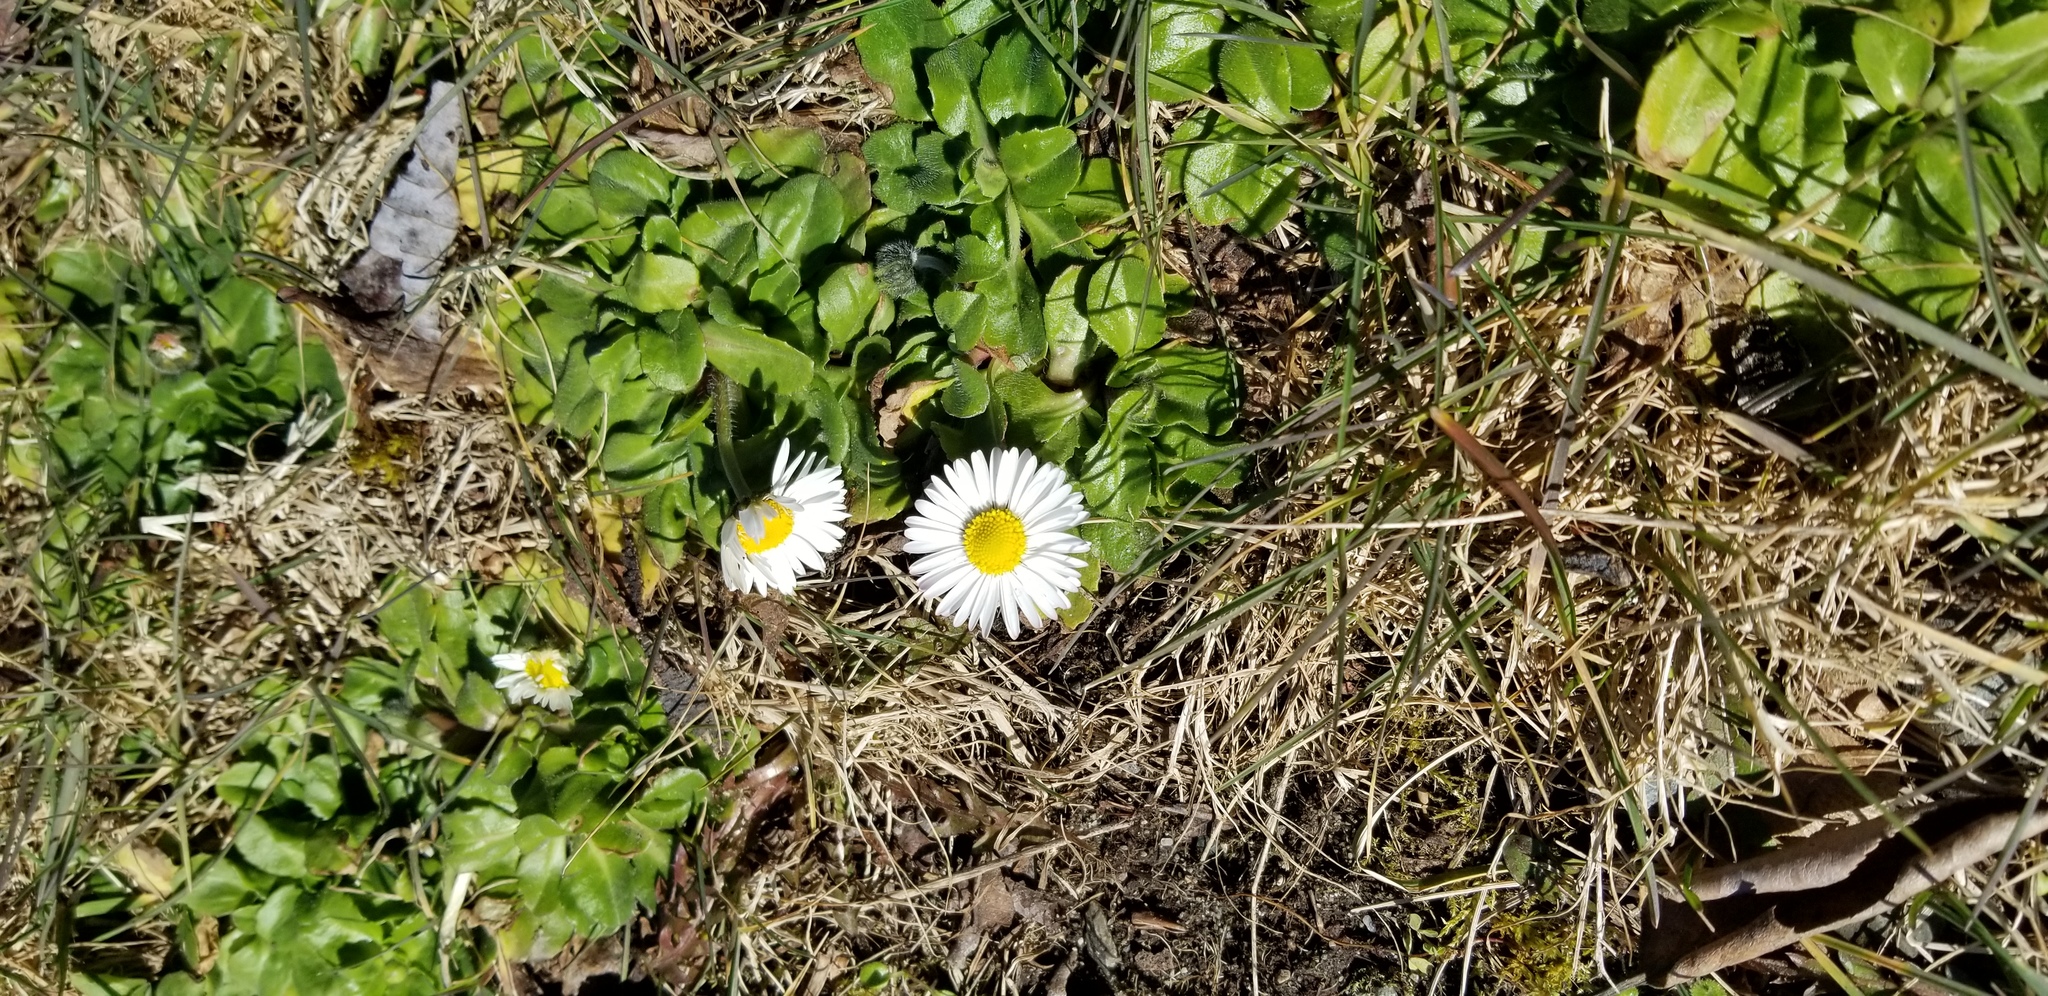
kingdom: Plantae
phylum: Tracheophyta
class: Magnoliopsida
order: Asterales
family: Asteraceae
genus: Bellis
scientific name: Bellis perennis
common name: Lawndaisy
